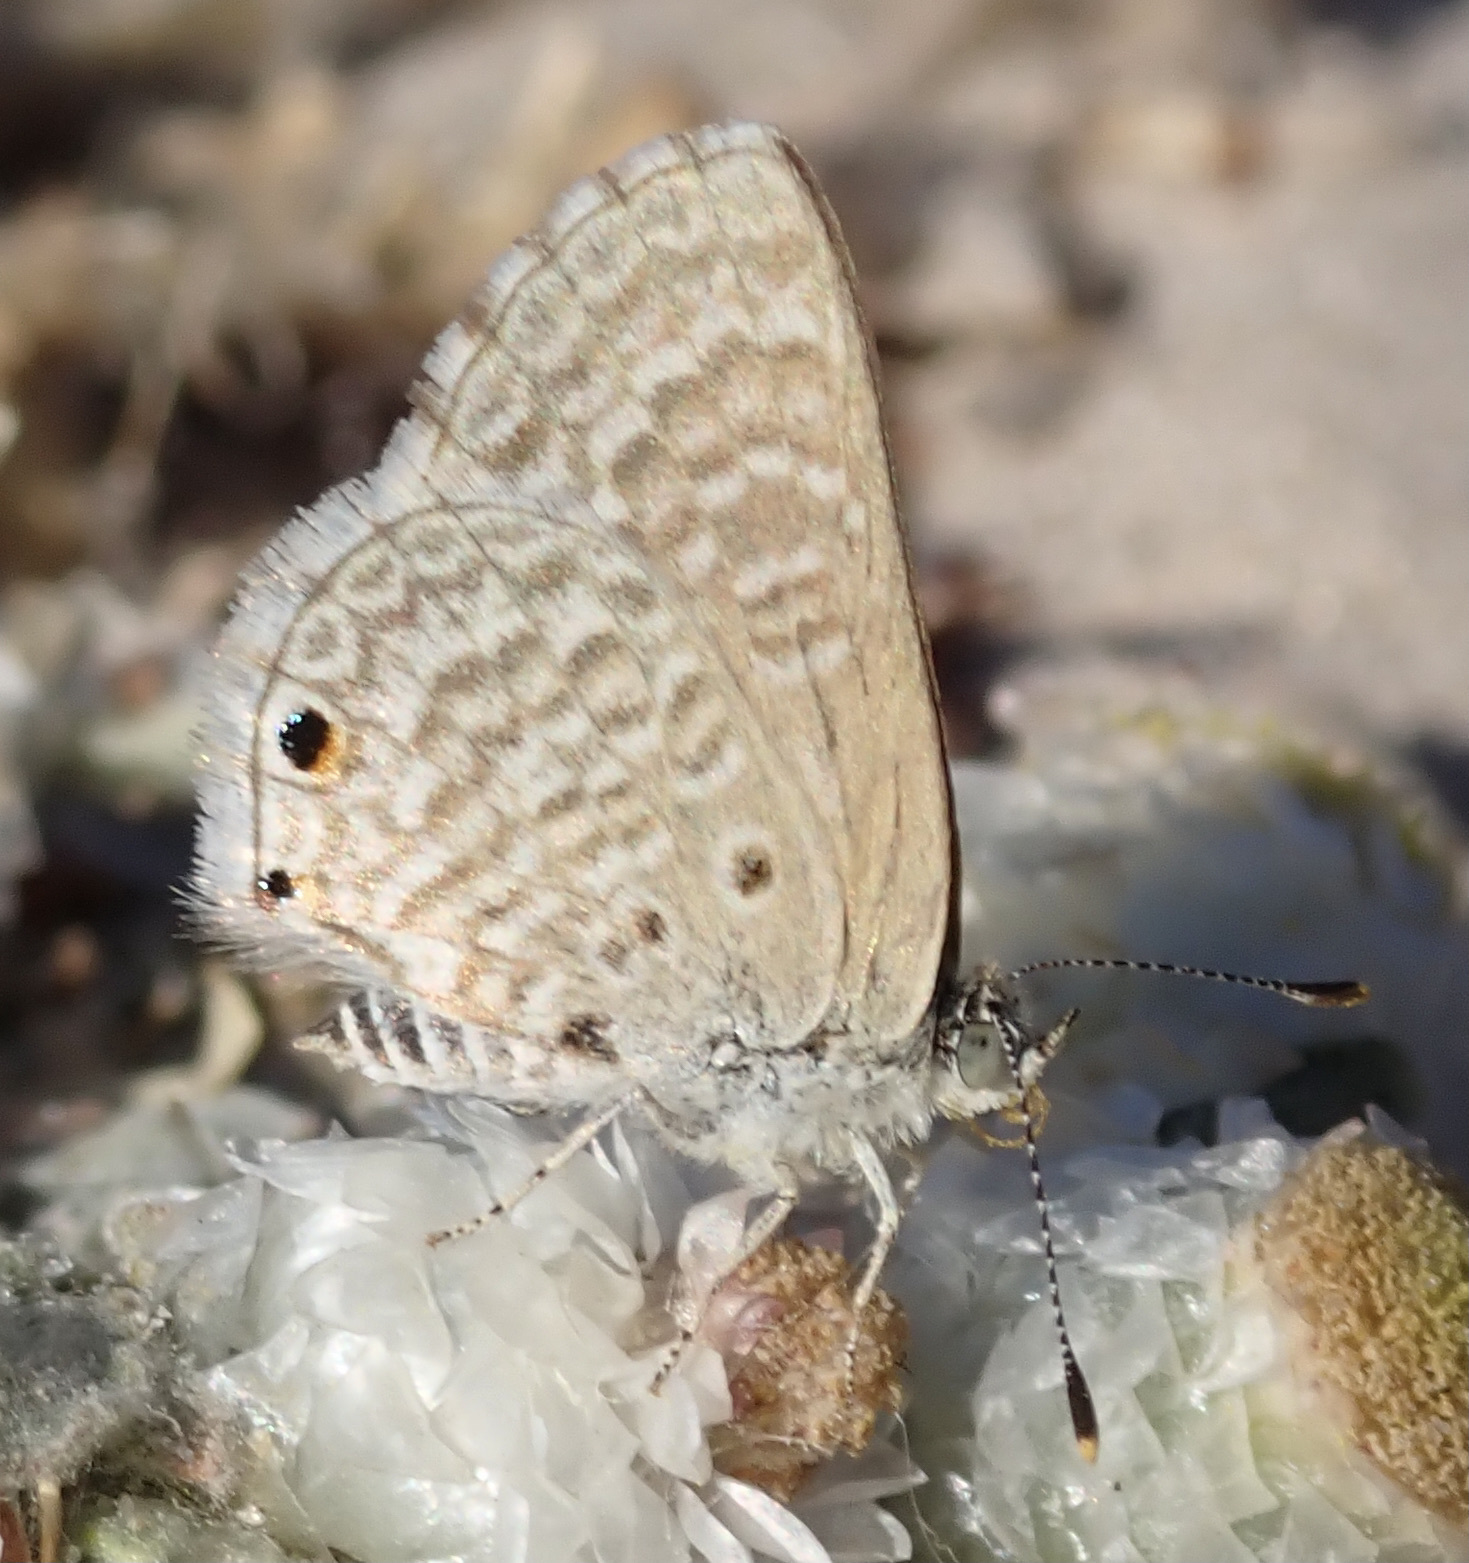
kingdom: Animalia
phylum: Arthropoda
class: Insecta
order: Lepidoptera
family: Lycaenidae
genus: Anthene
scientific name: Anthene dulcis
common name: Mashuna hairtail
